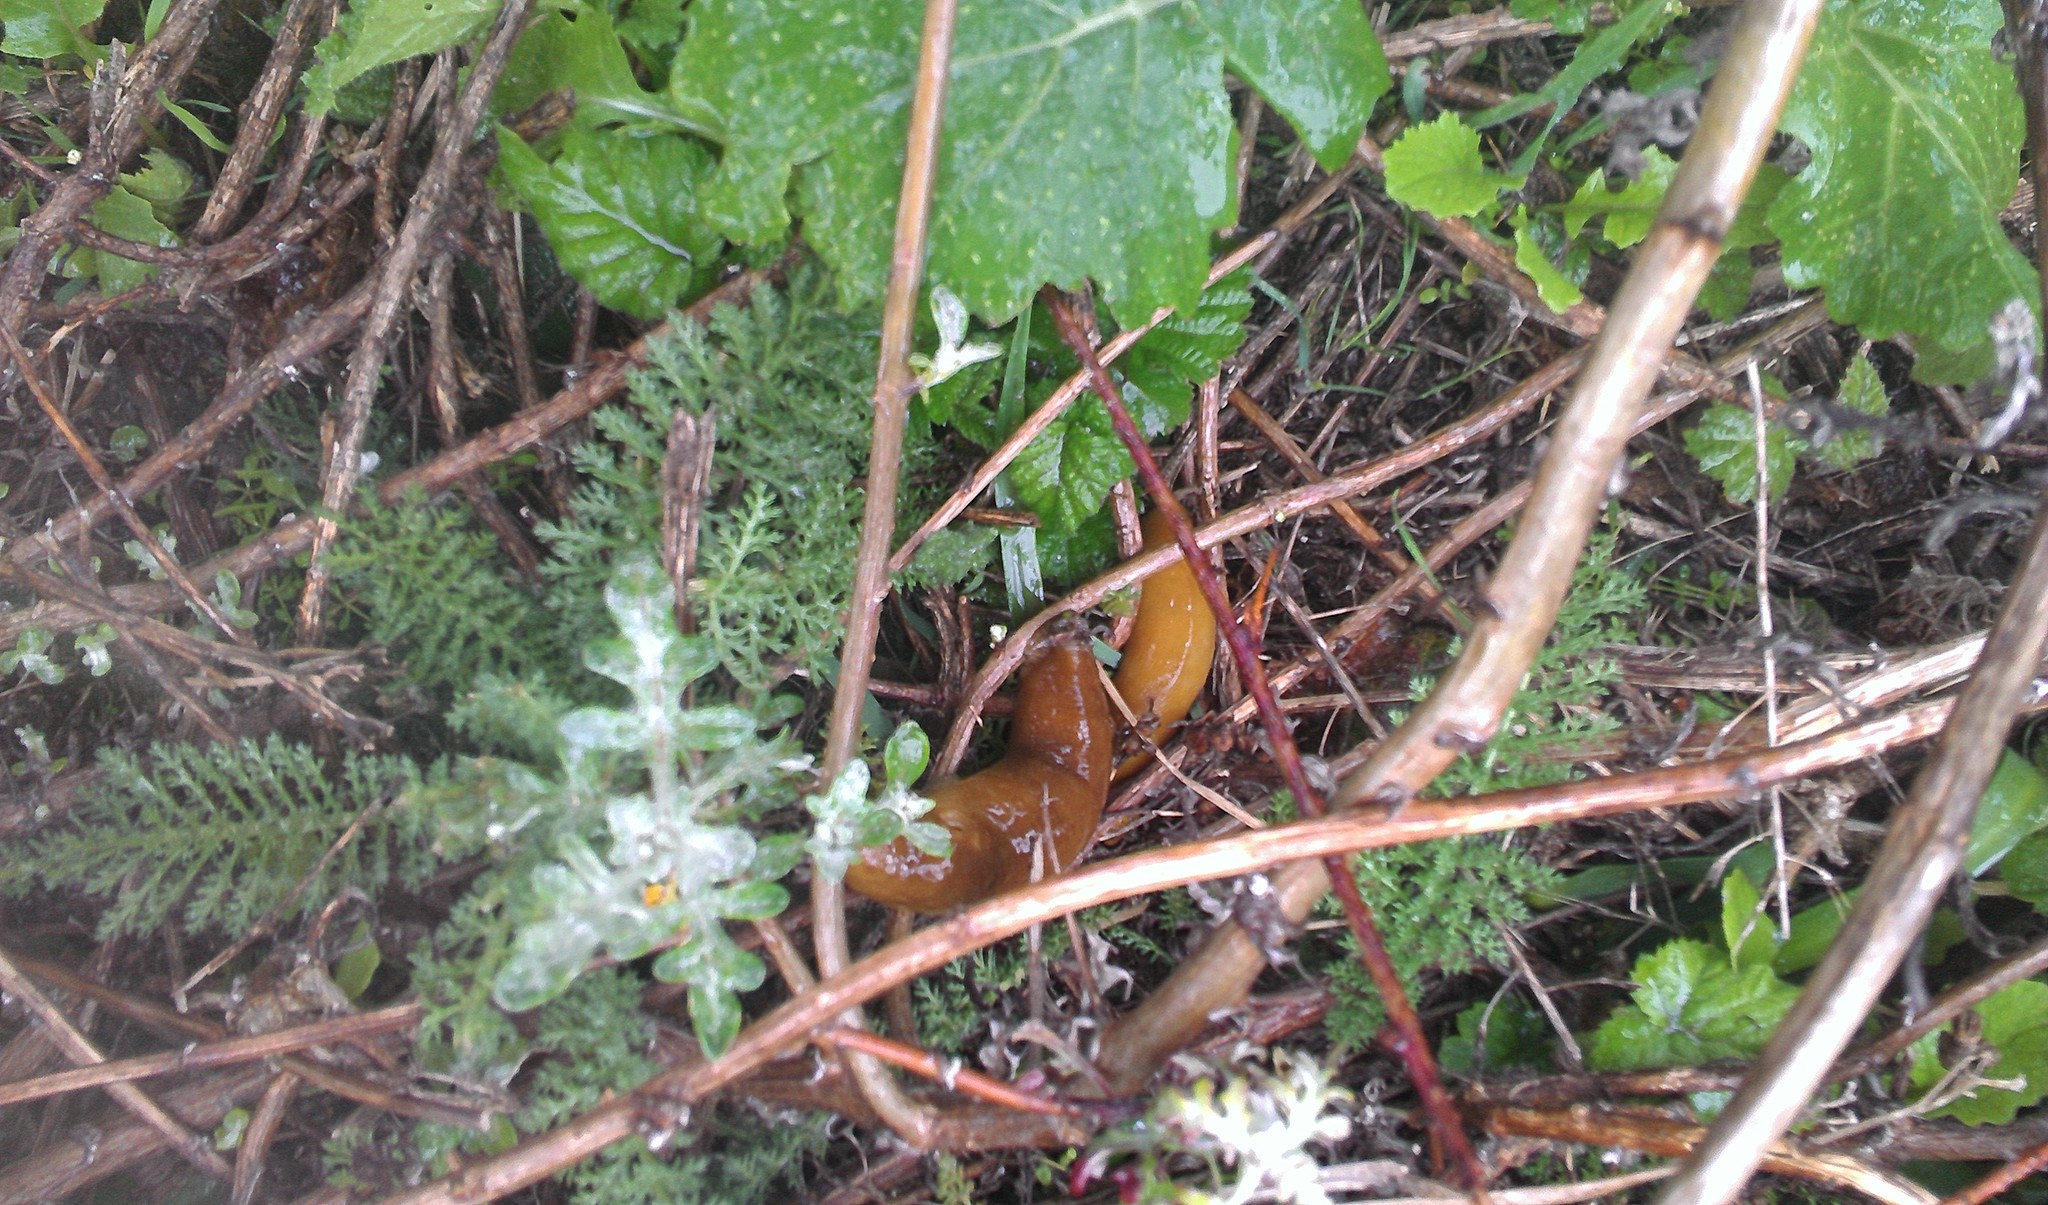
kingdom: Animalia
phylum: Mollusca
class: Gastropoda
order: Stylommatophora
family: Ariolimacidae
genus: Ariolimax
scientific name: Ariolimax
